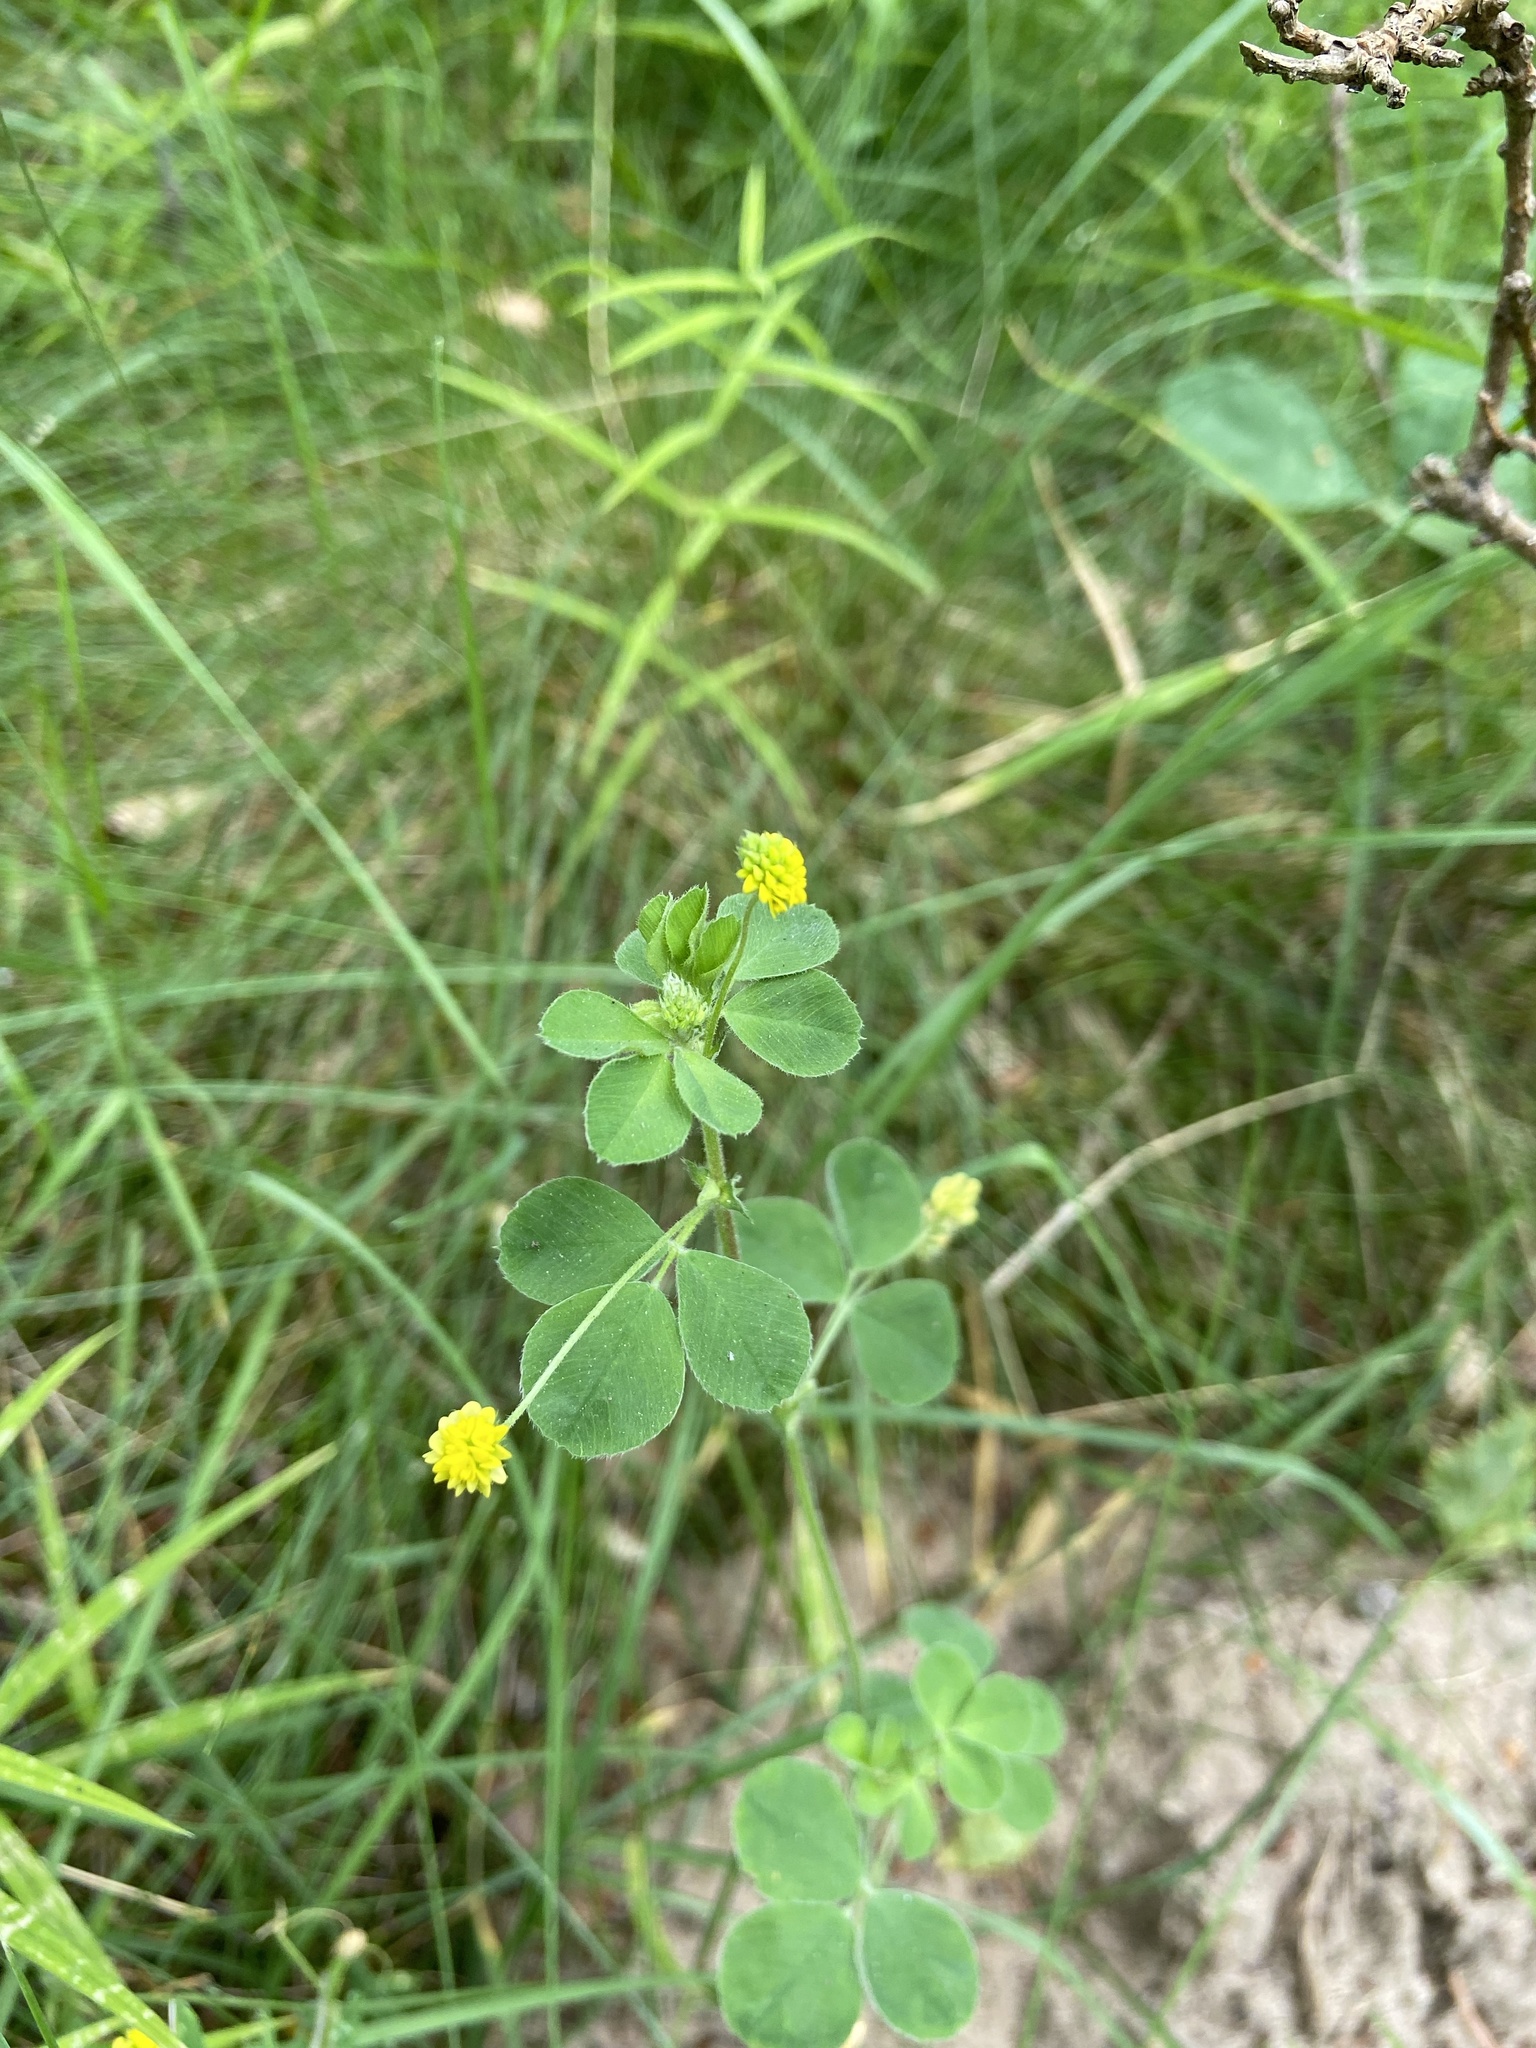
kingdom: Plantae
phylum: Tracheophyta
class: Magnoliopsida
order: Fabales
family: Fabaceae
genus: Medicago
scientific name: Medicago lupulina
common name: Black medick
